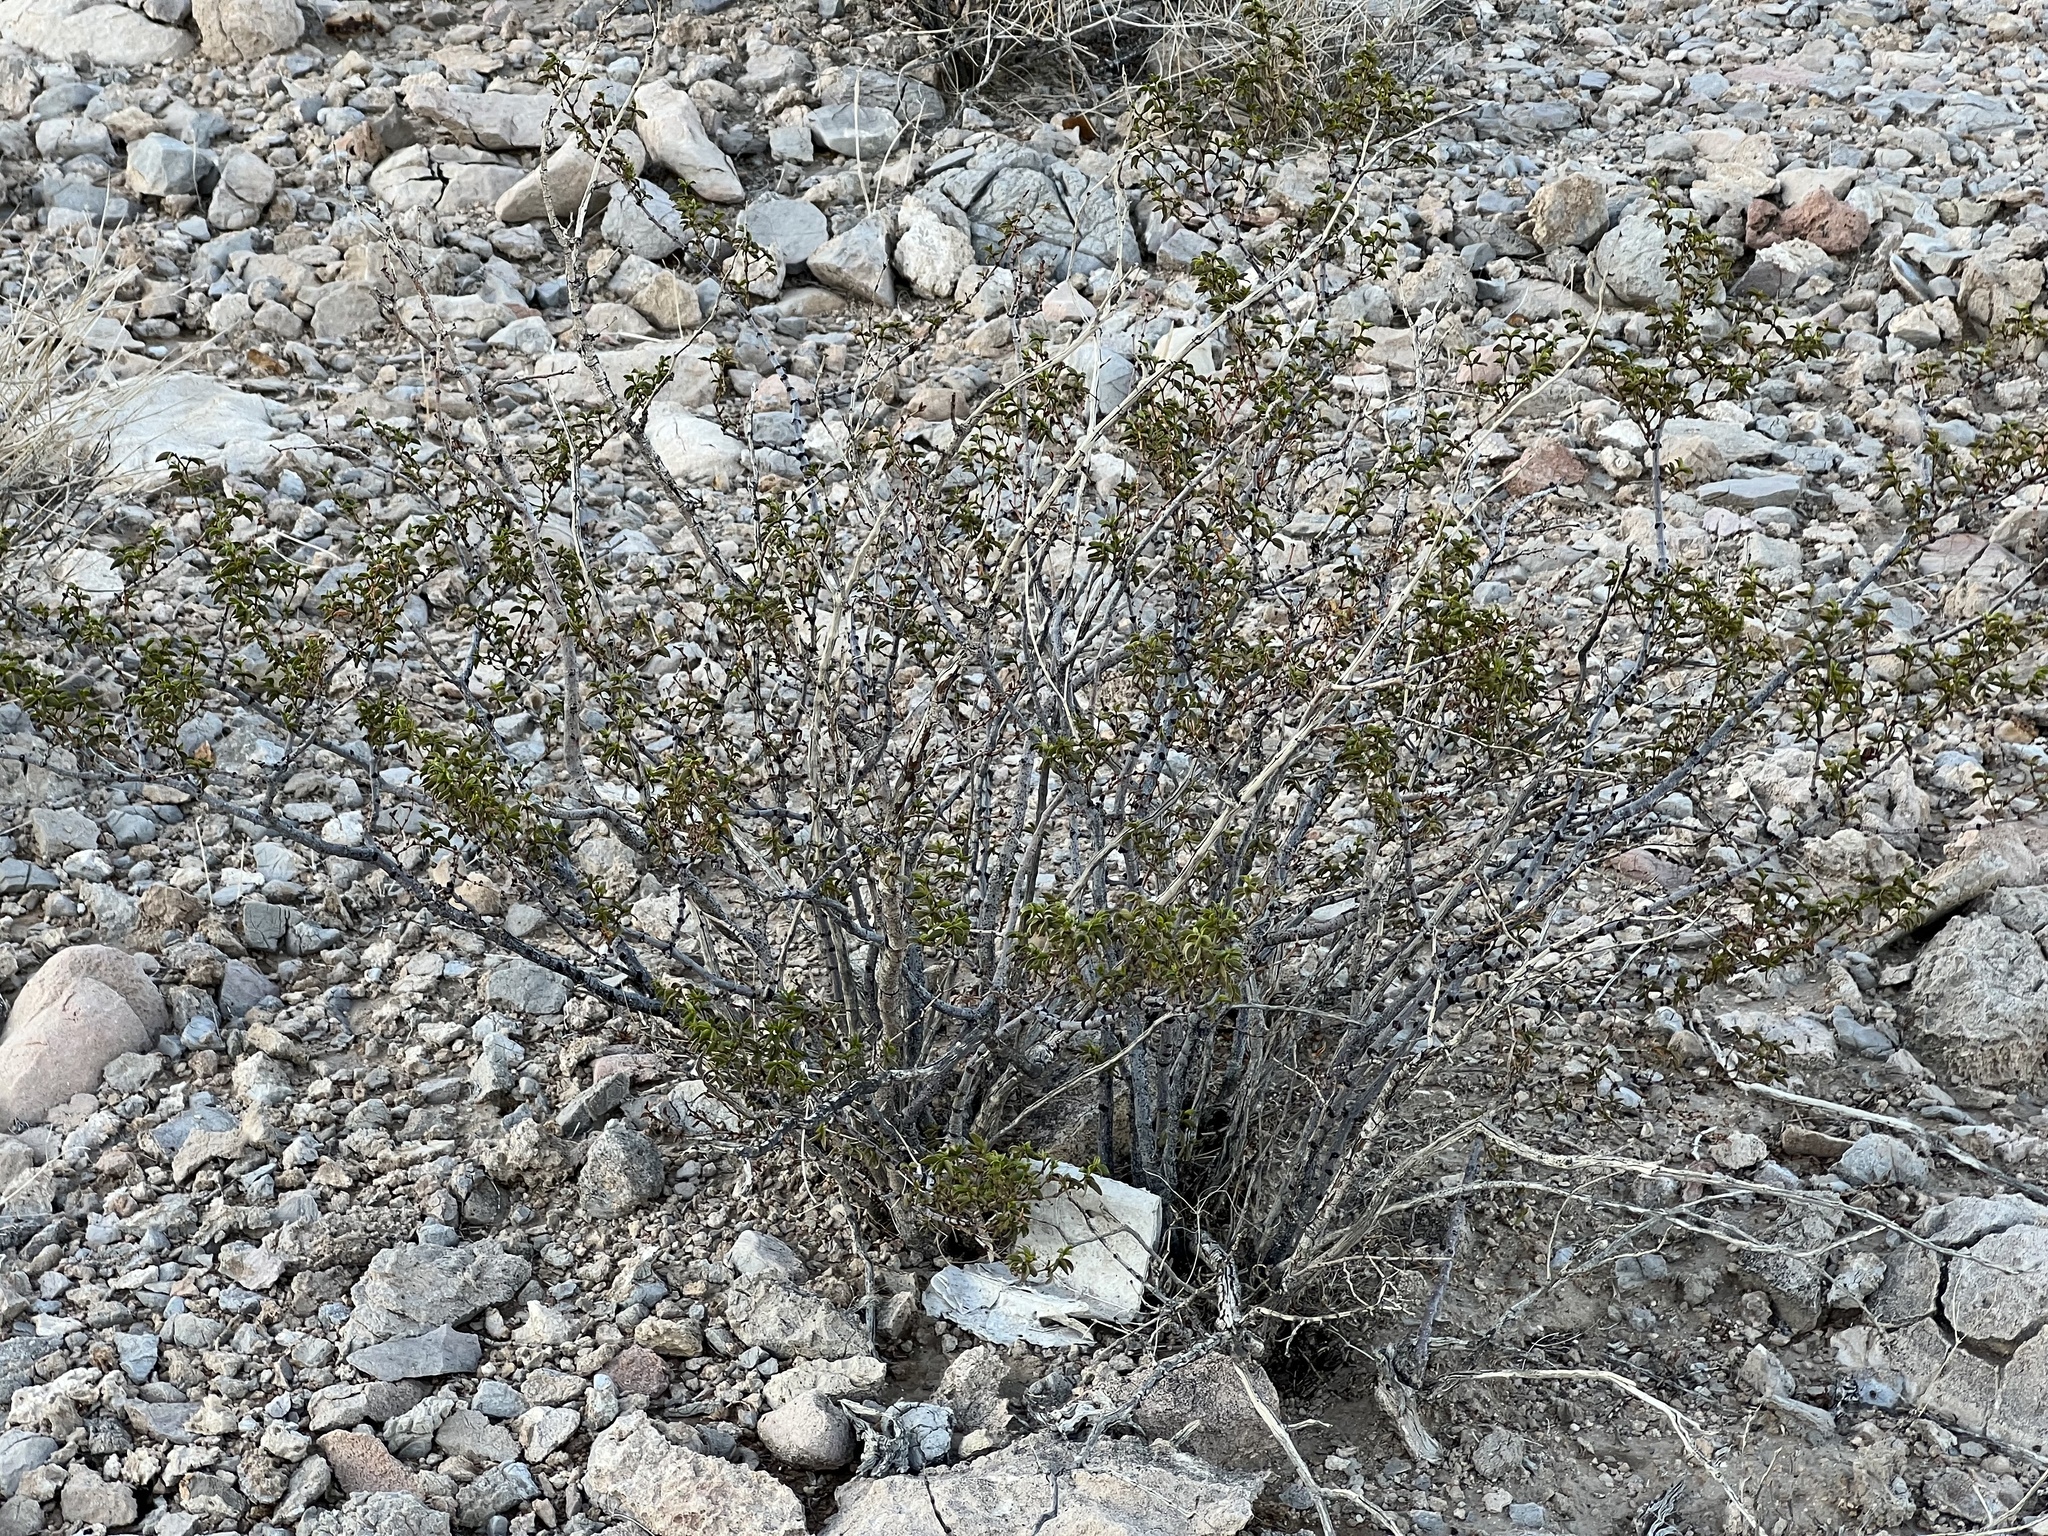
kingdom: Plantae
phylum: Tracheophyta
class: Magnoliopsida
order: Zygophyllales
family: Zygophyllaceae
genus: Larrea
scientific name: Larrea tridentata
